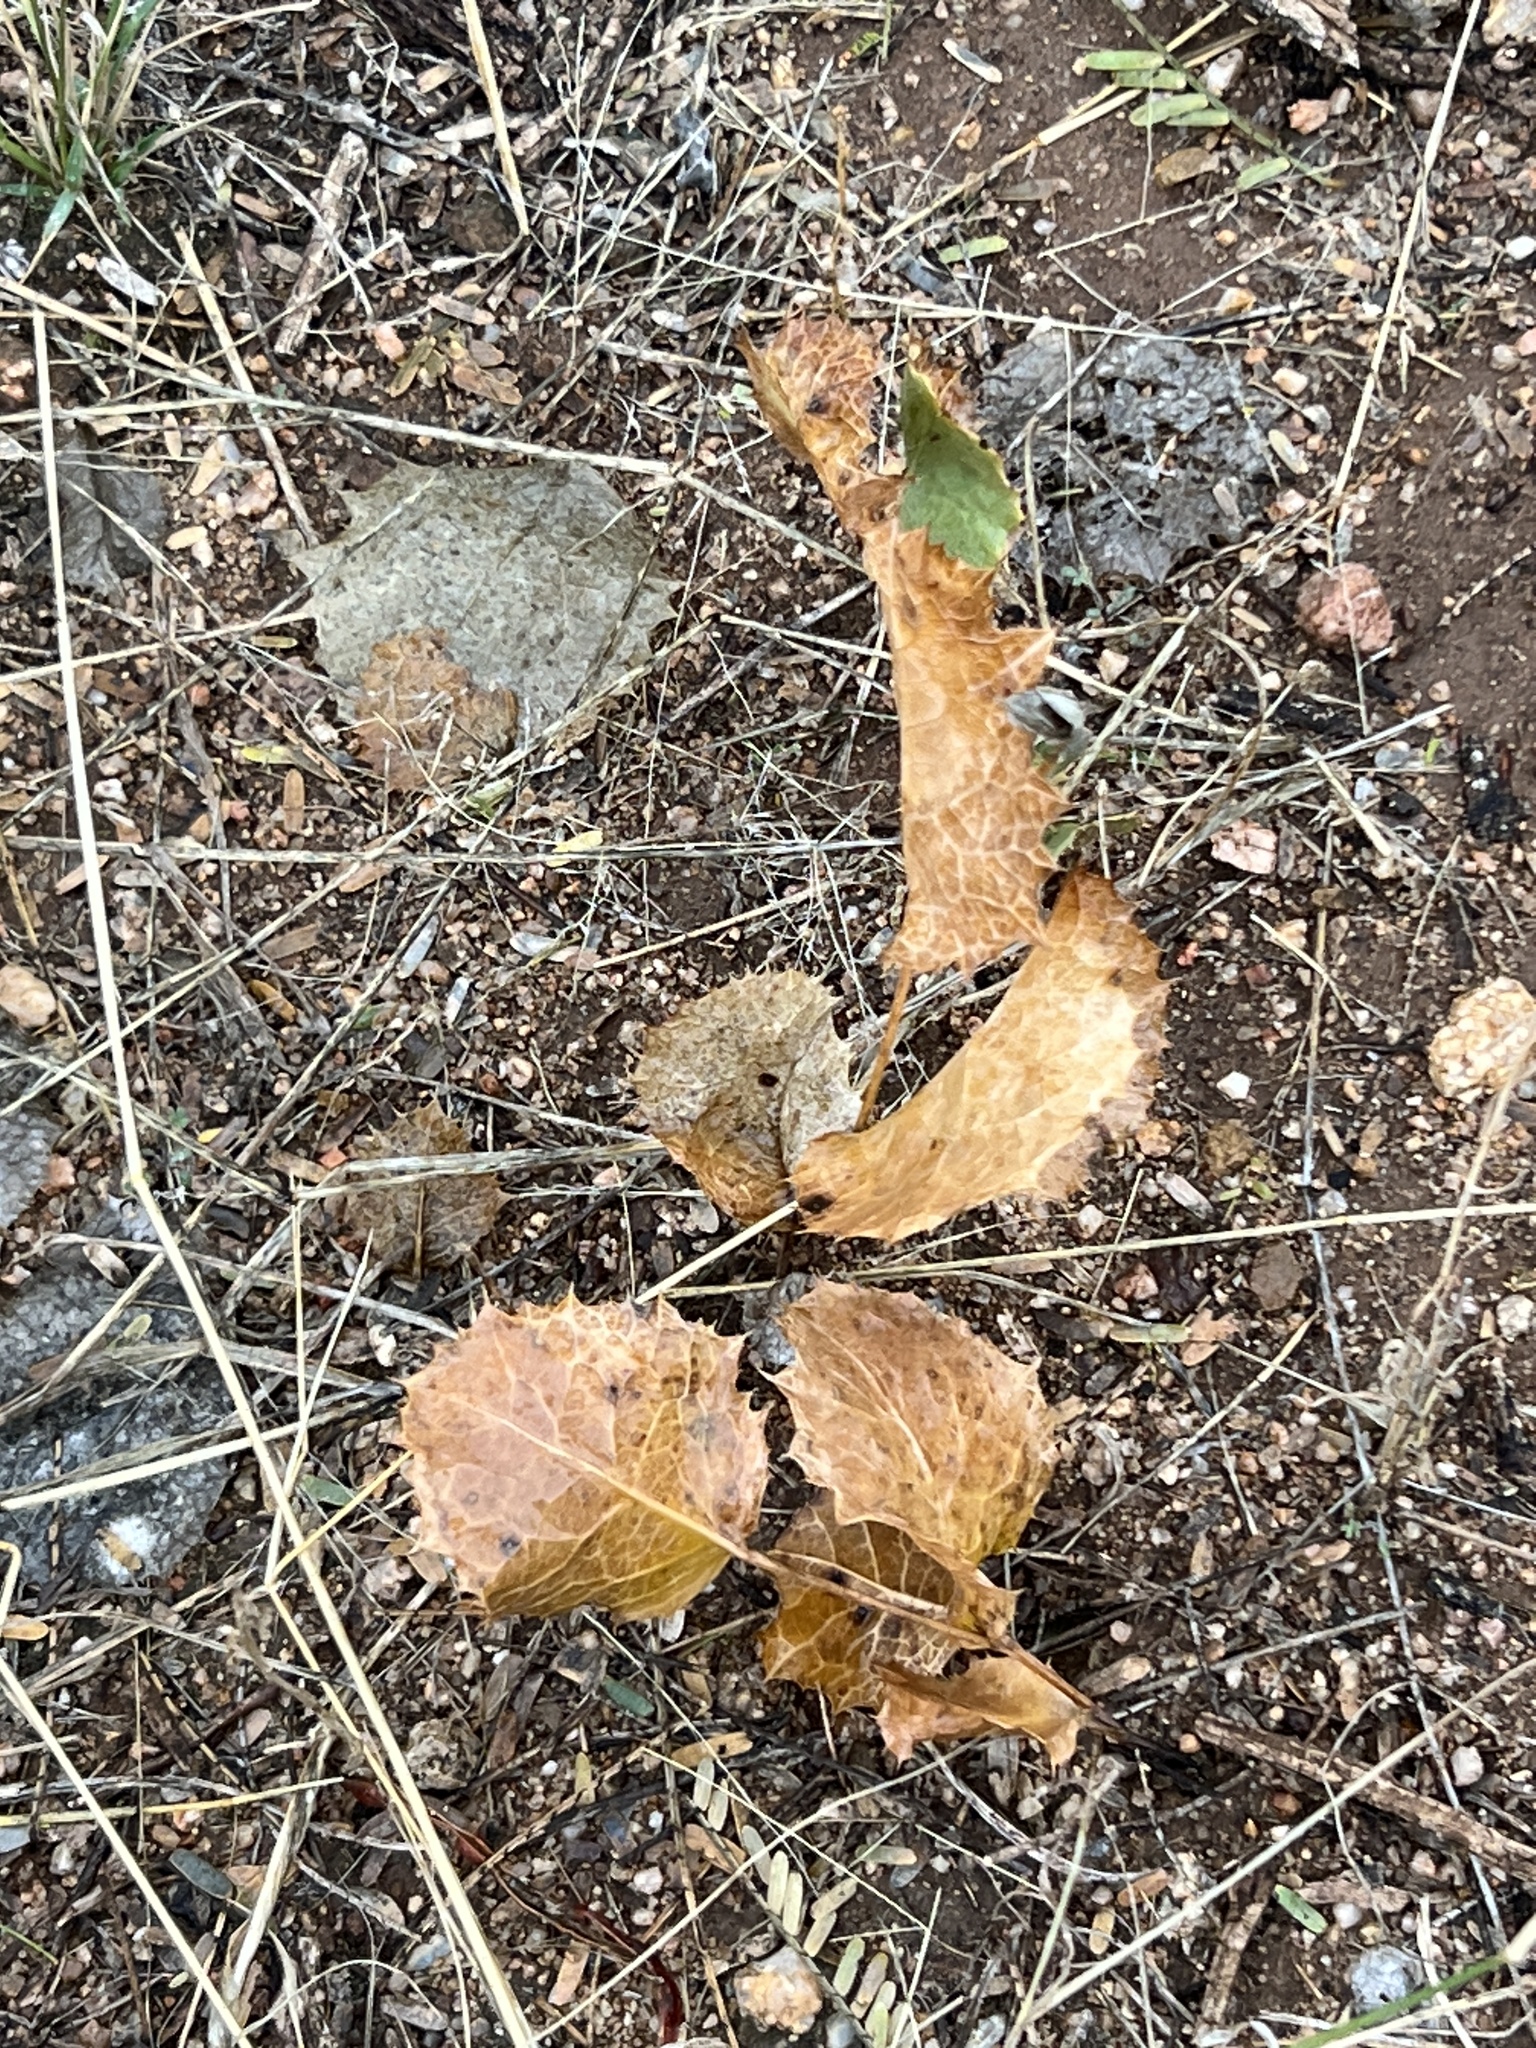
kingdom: Plantae
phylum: Tracheophyta
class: Magnoliopsida
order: Asterales
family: Asteraceae
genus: Acourtia
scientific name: Acourtia nana
